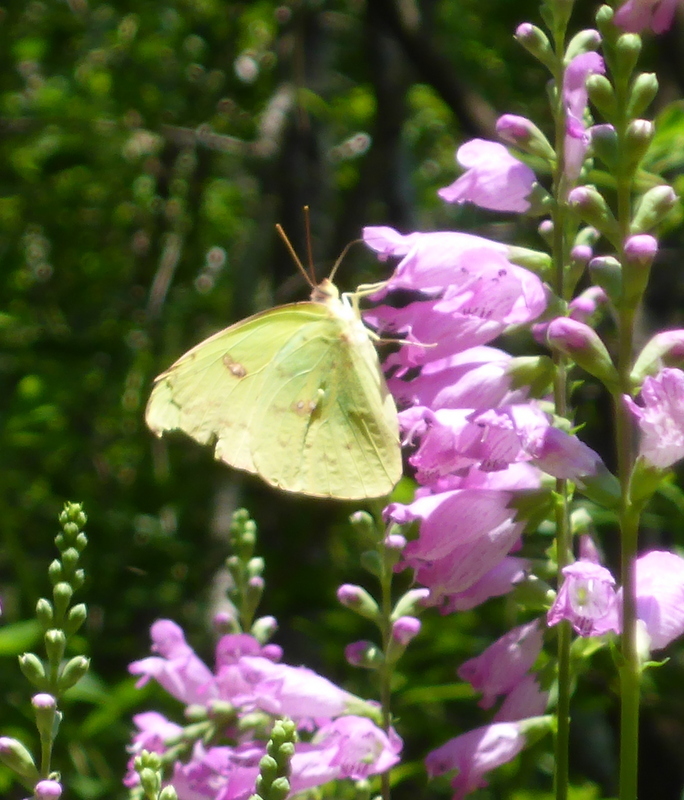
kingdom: Animalia
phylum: Arthropoda
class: Insecta
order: Lepidoptera
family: Pieridae
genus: Phoebis
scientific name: Phoebis sennae
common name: Cloudless sulphur
